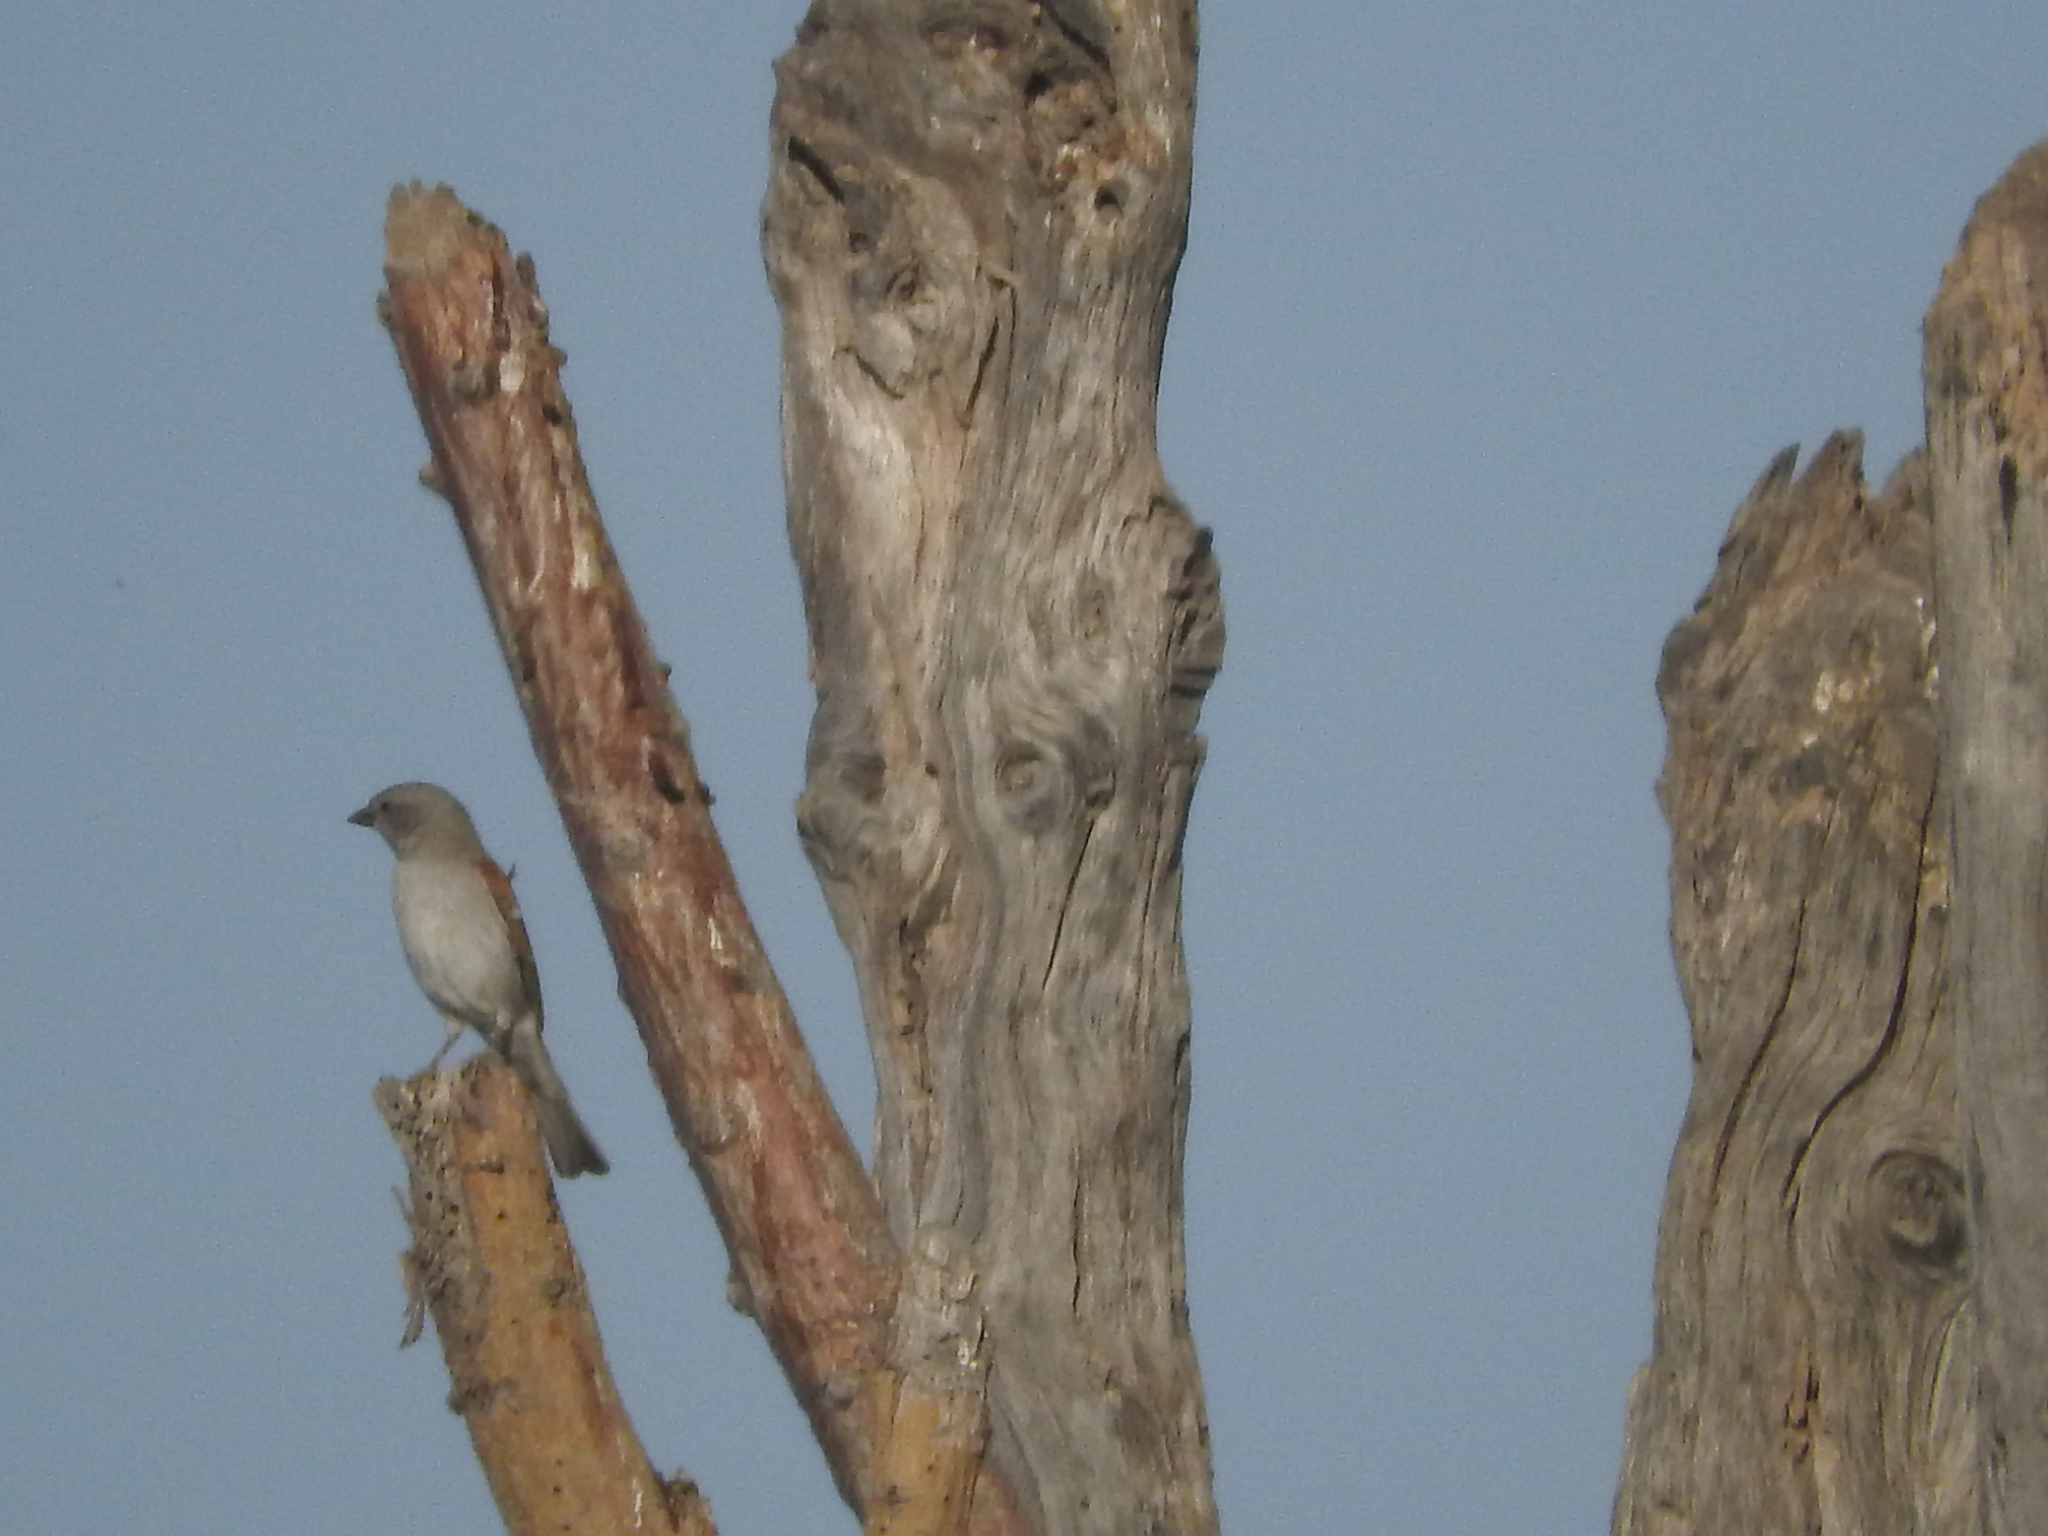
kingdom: Animalia
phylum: Chordata
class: Aves
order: Passeriformes
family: Passeridae
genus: Passer
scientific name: Passer diffusus
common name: Southern grey-headed sparrow
